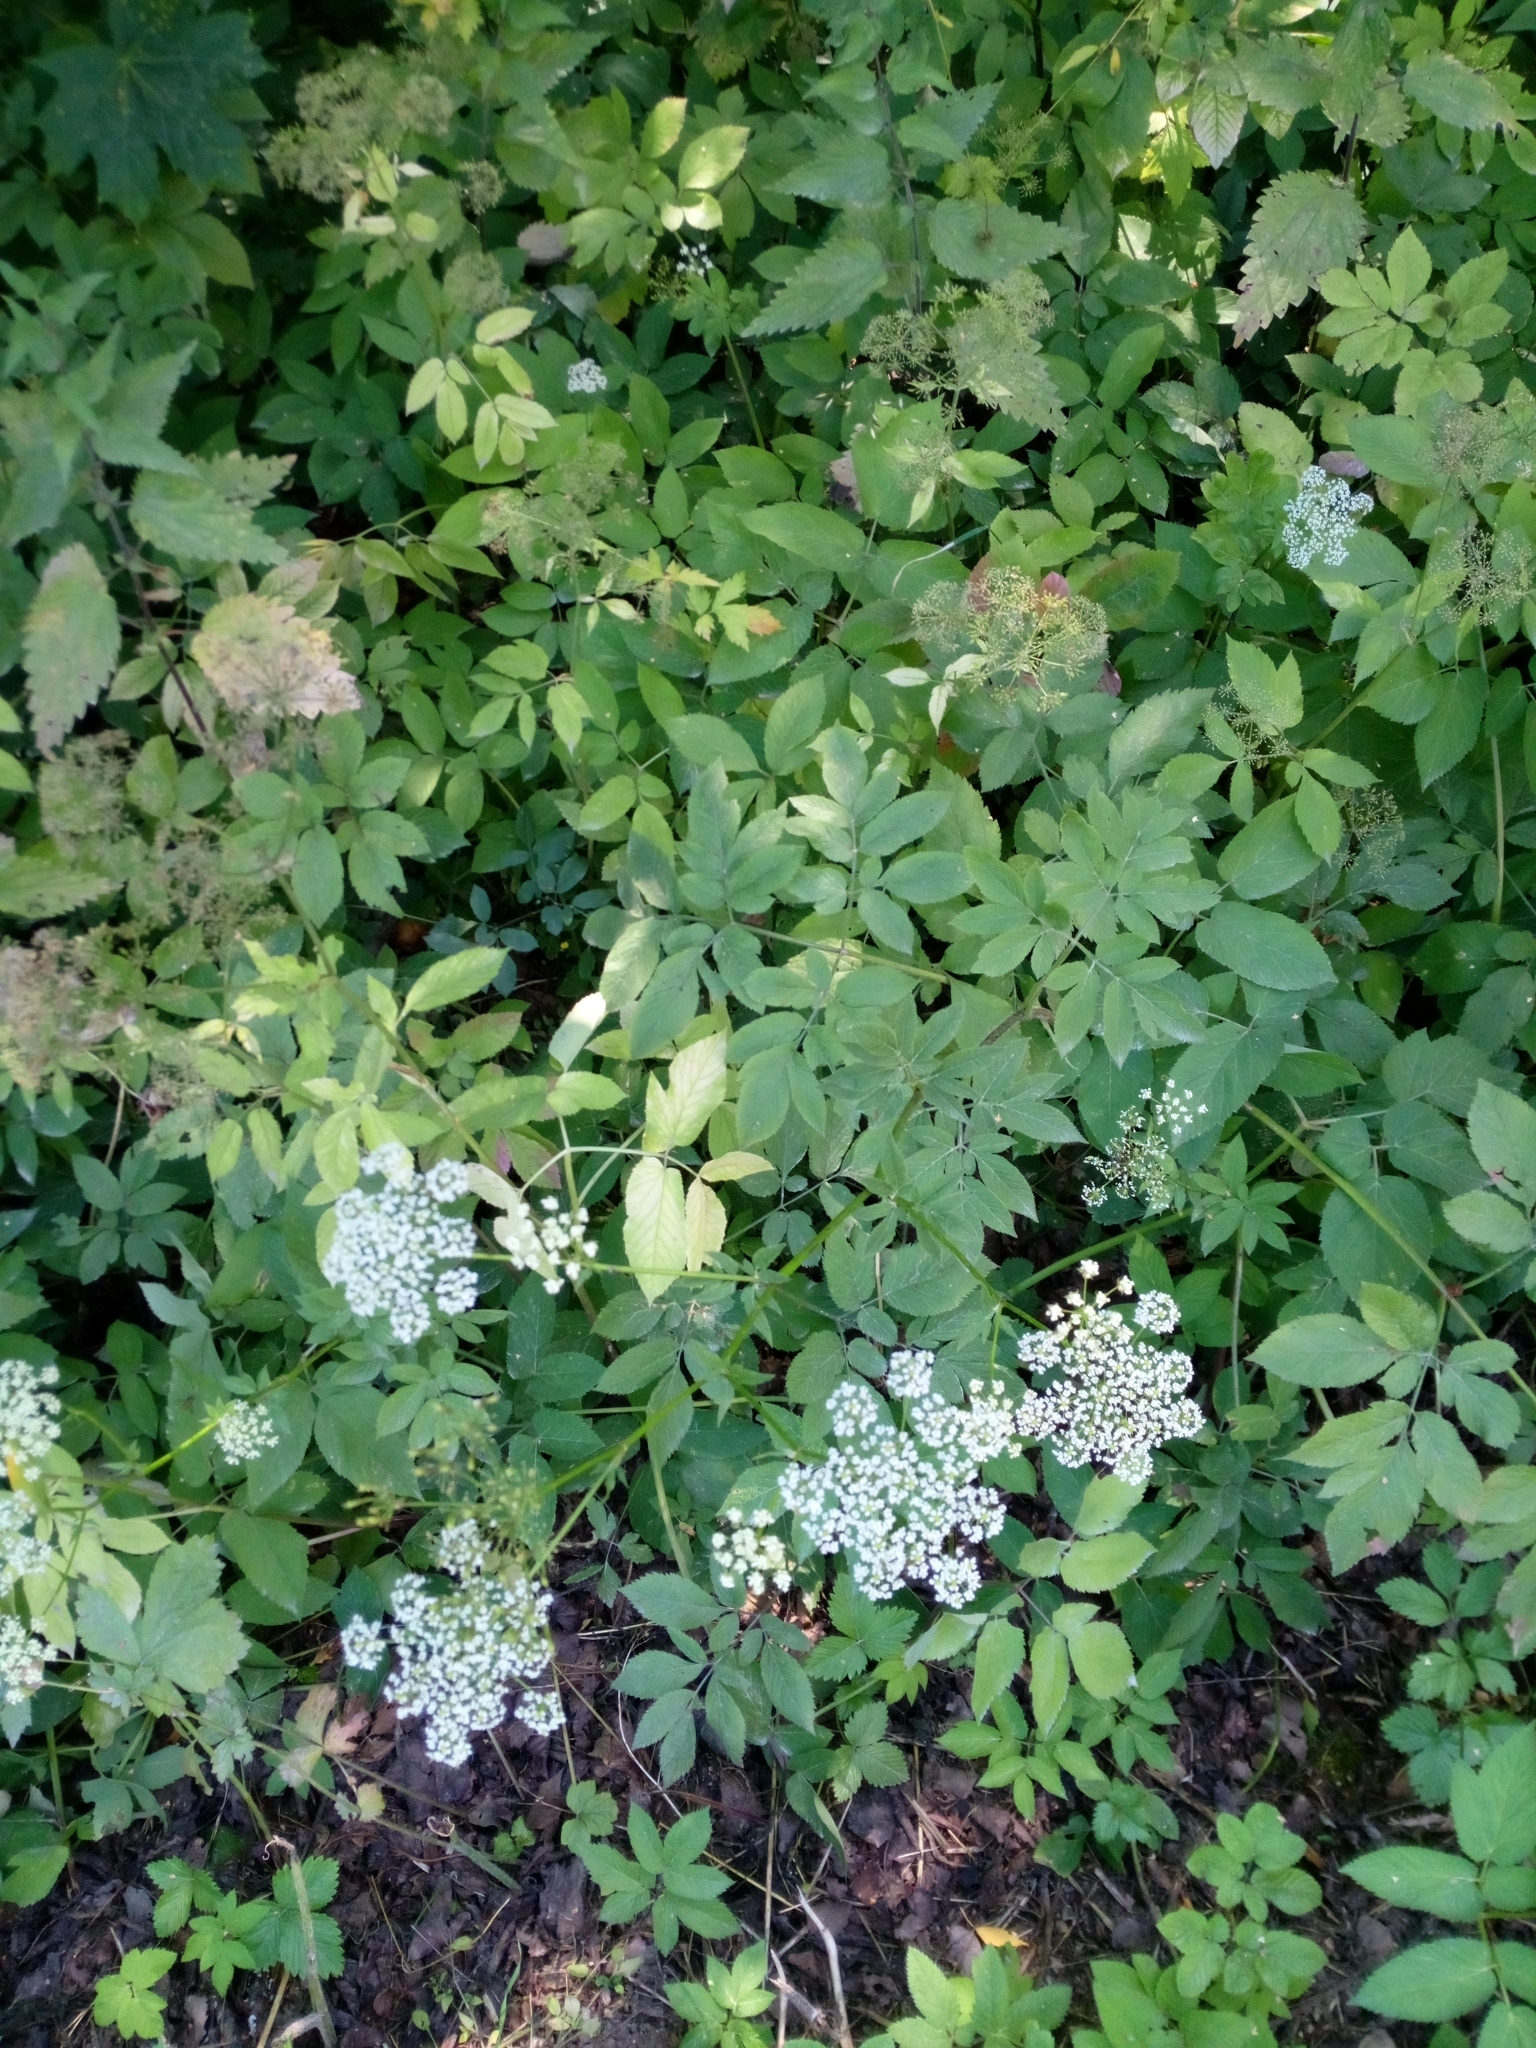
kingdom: Plantae
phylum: Tracheophyta
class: Magnoliopsida
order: Apiales
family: Apiaceae
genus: Aegopodium
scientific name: Aegopodium podagraria
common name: Ground-elder
